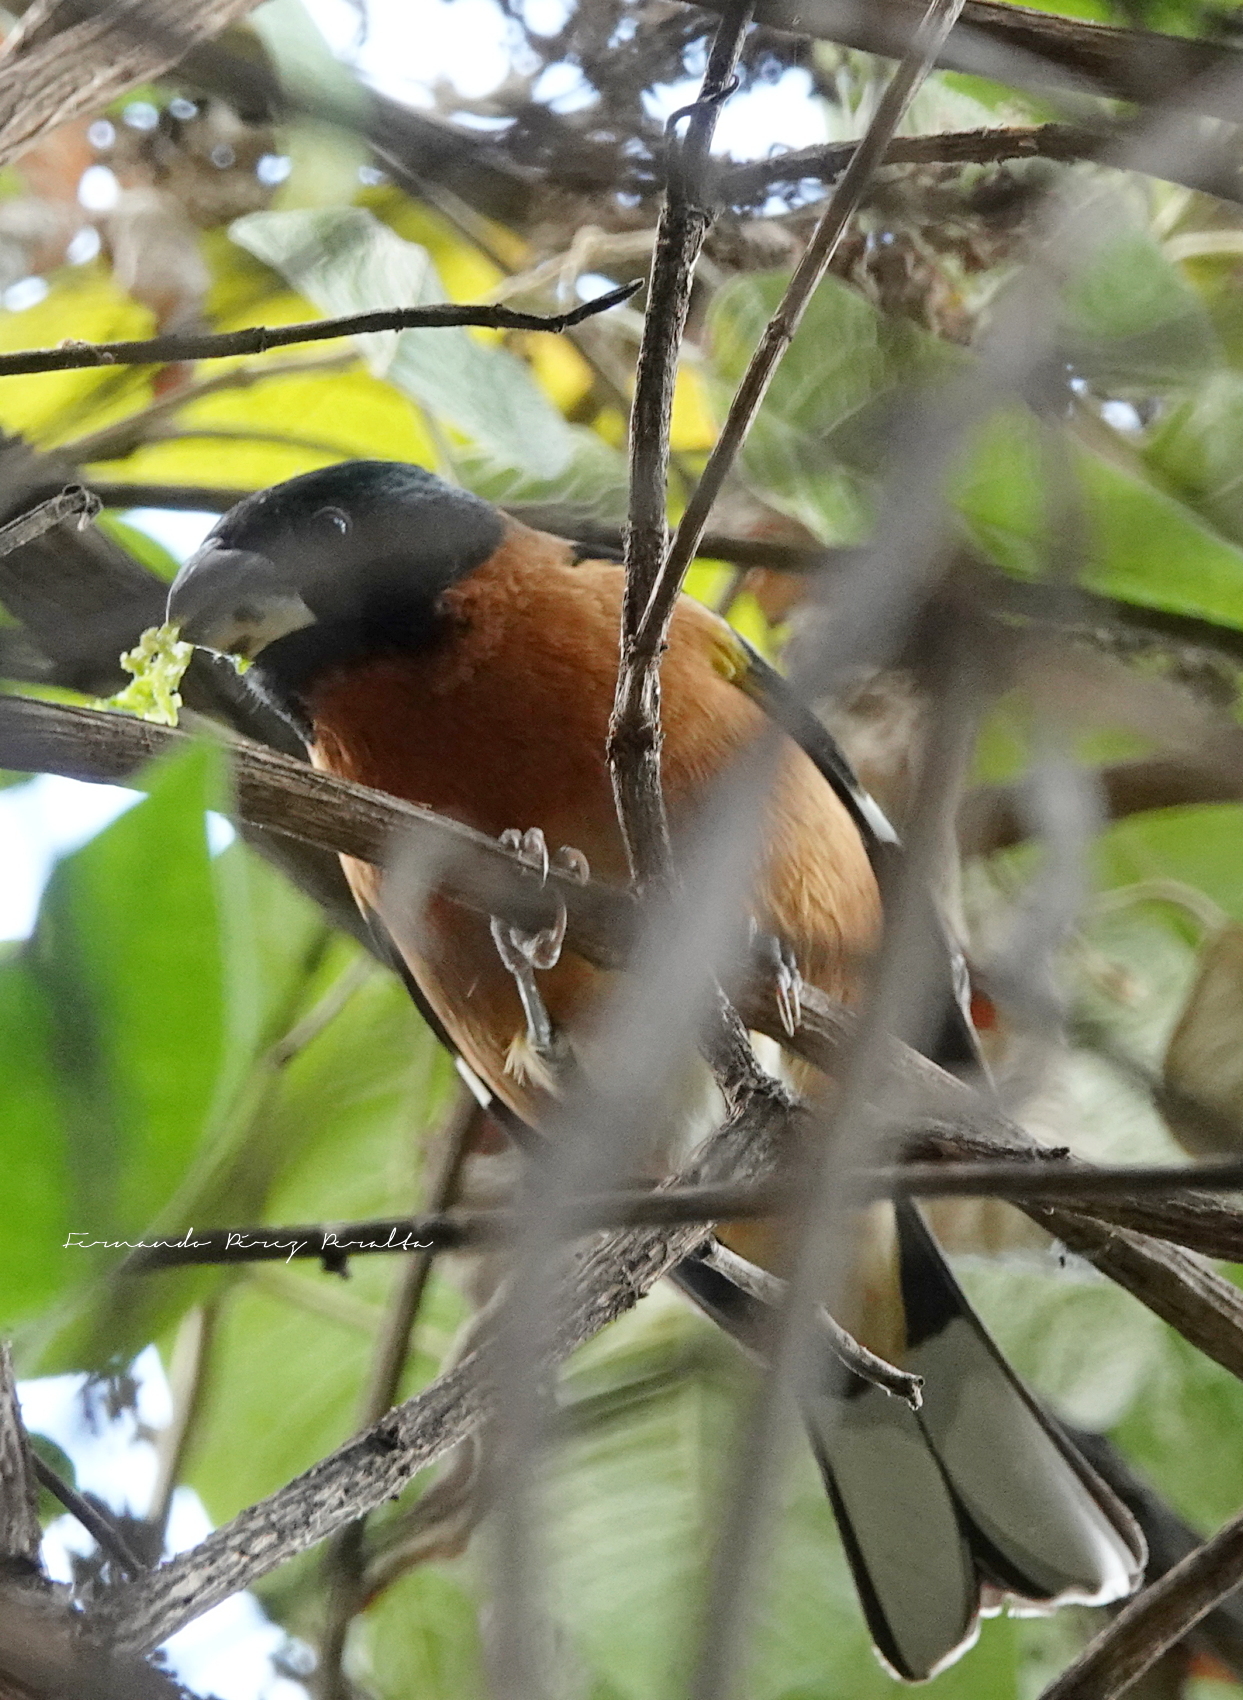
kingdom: Animalia
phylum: Chordata
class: Aves
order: Passeriformes
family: Cardinalidae
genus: Pheucticus
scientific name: Pheucticus melanocephalus
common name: Black-headed grosbeak
